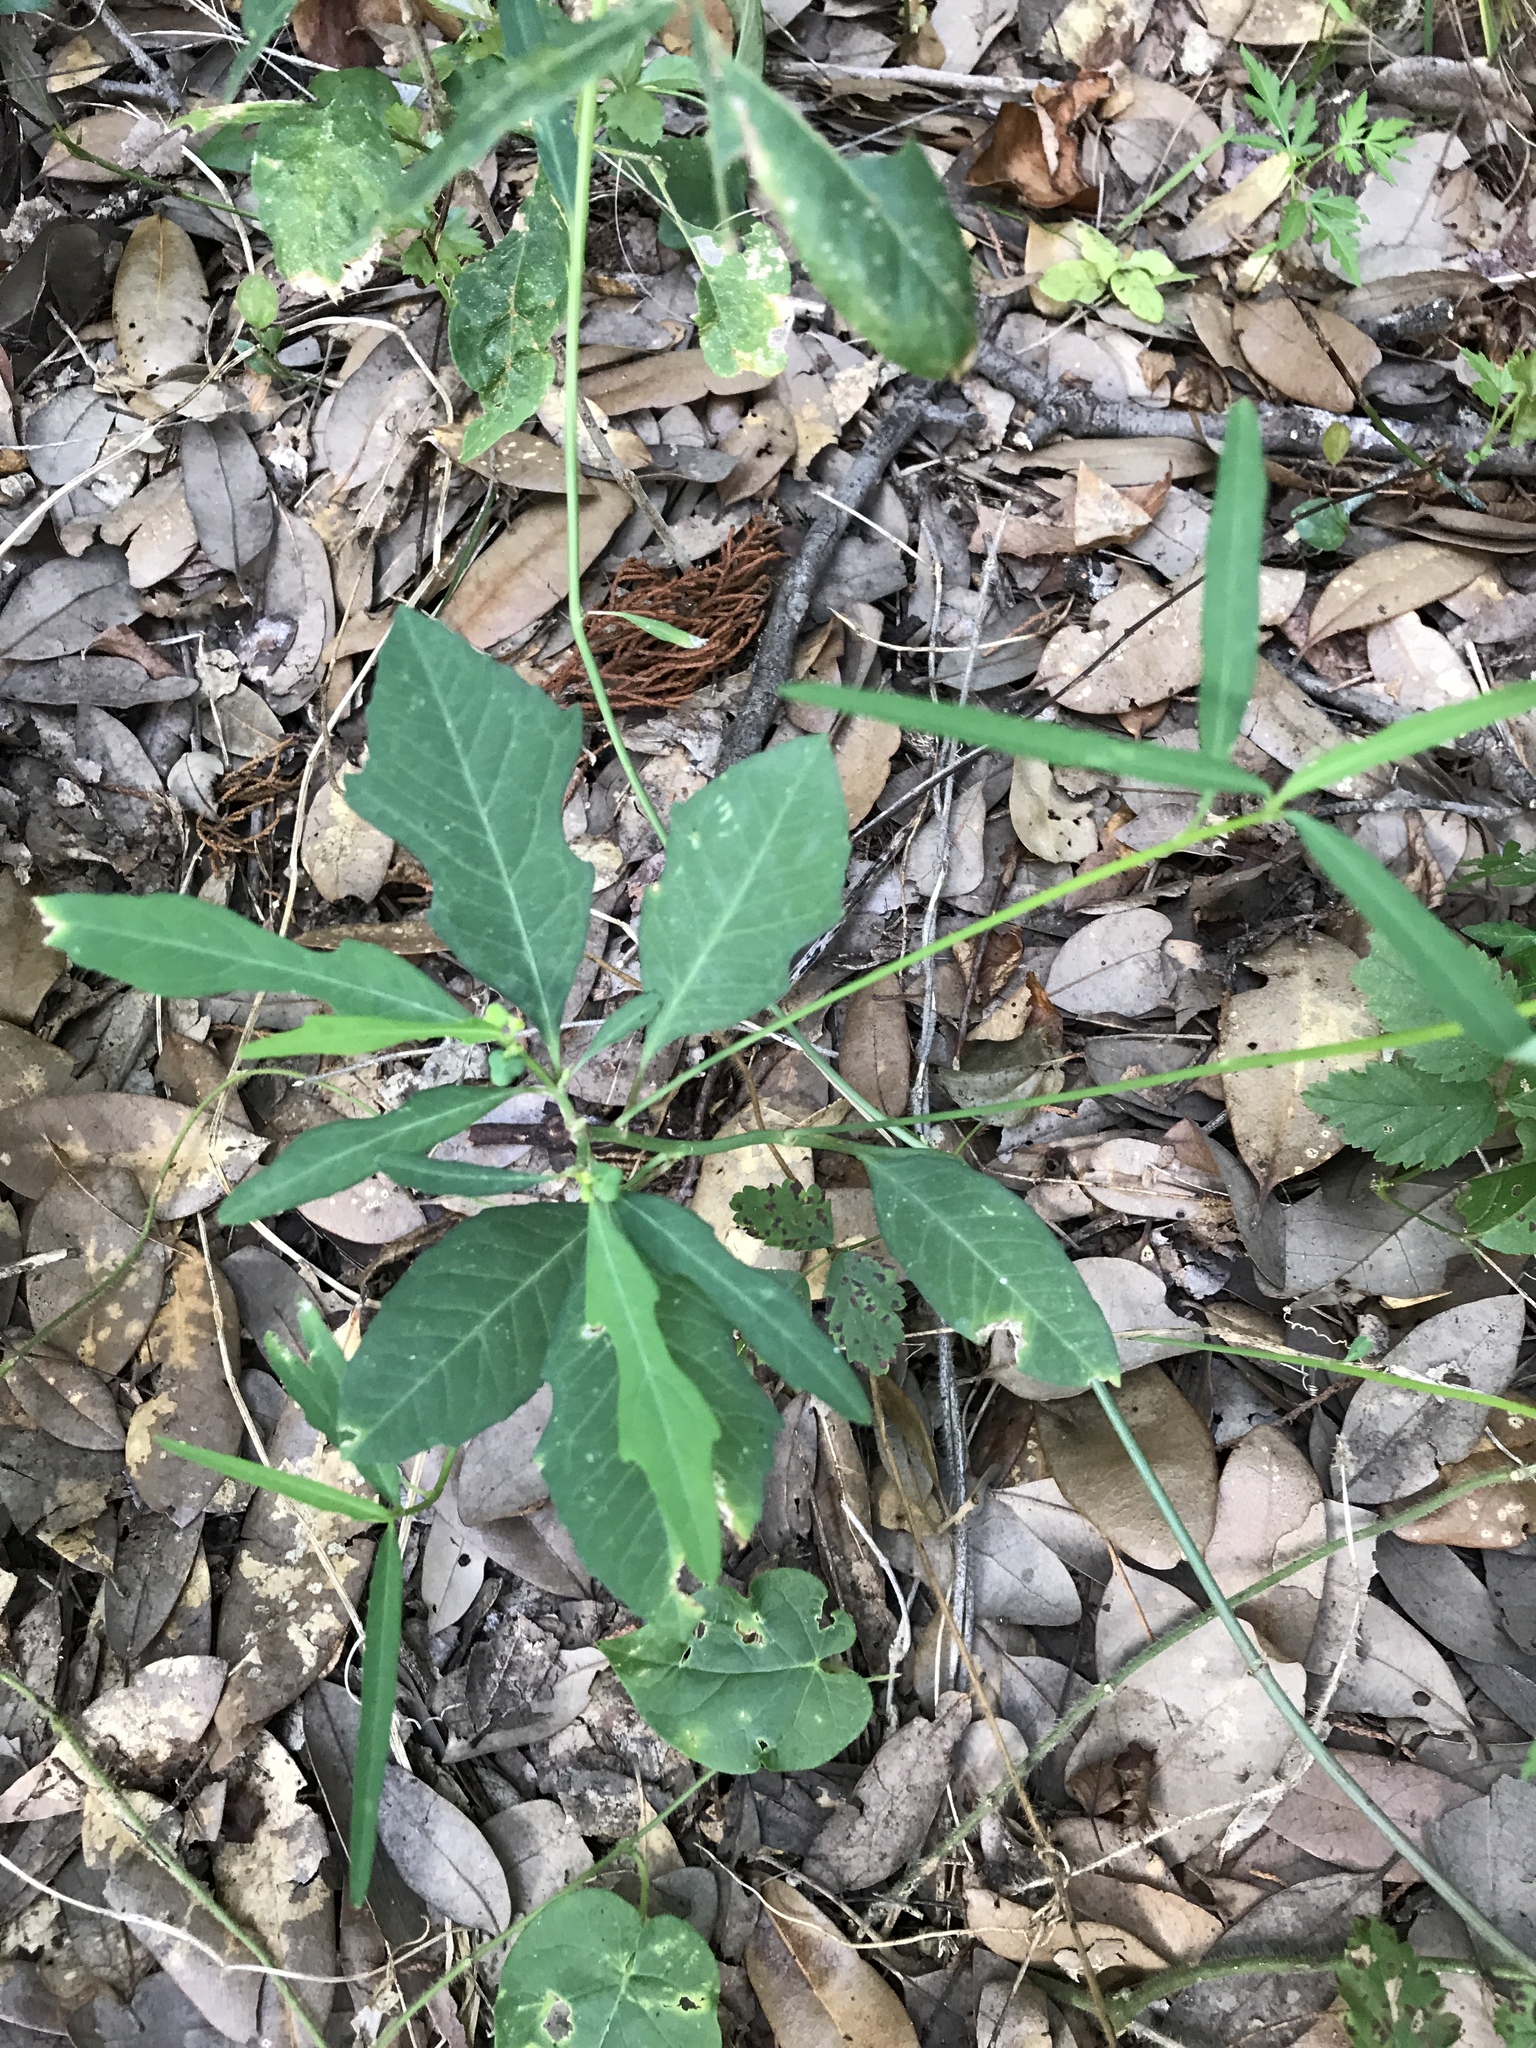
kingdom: Plantae
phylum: Tracheophyta
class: Magnoliopsida
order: Malpighiales
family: Euphorbiaceae
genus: Euphorbia
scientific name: Euphorbia heterophylla
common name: Mexican fireplant
